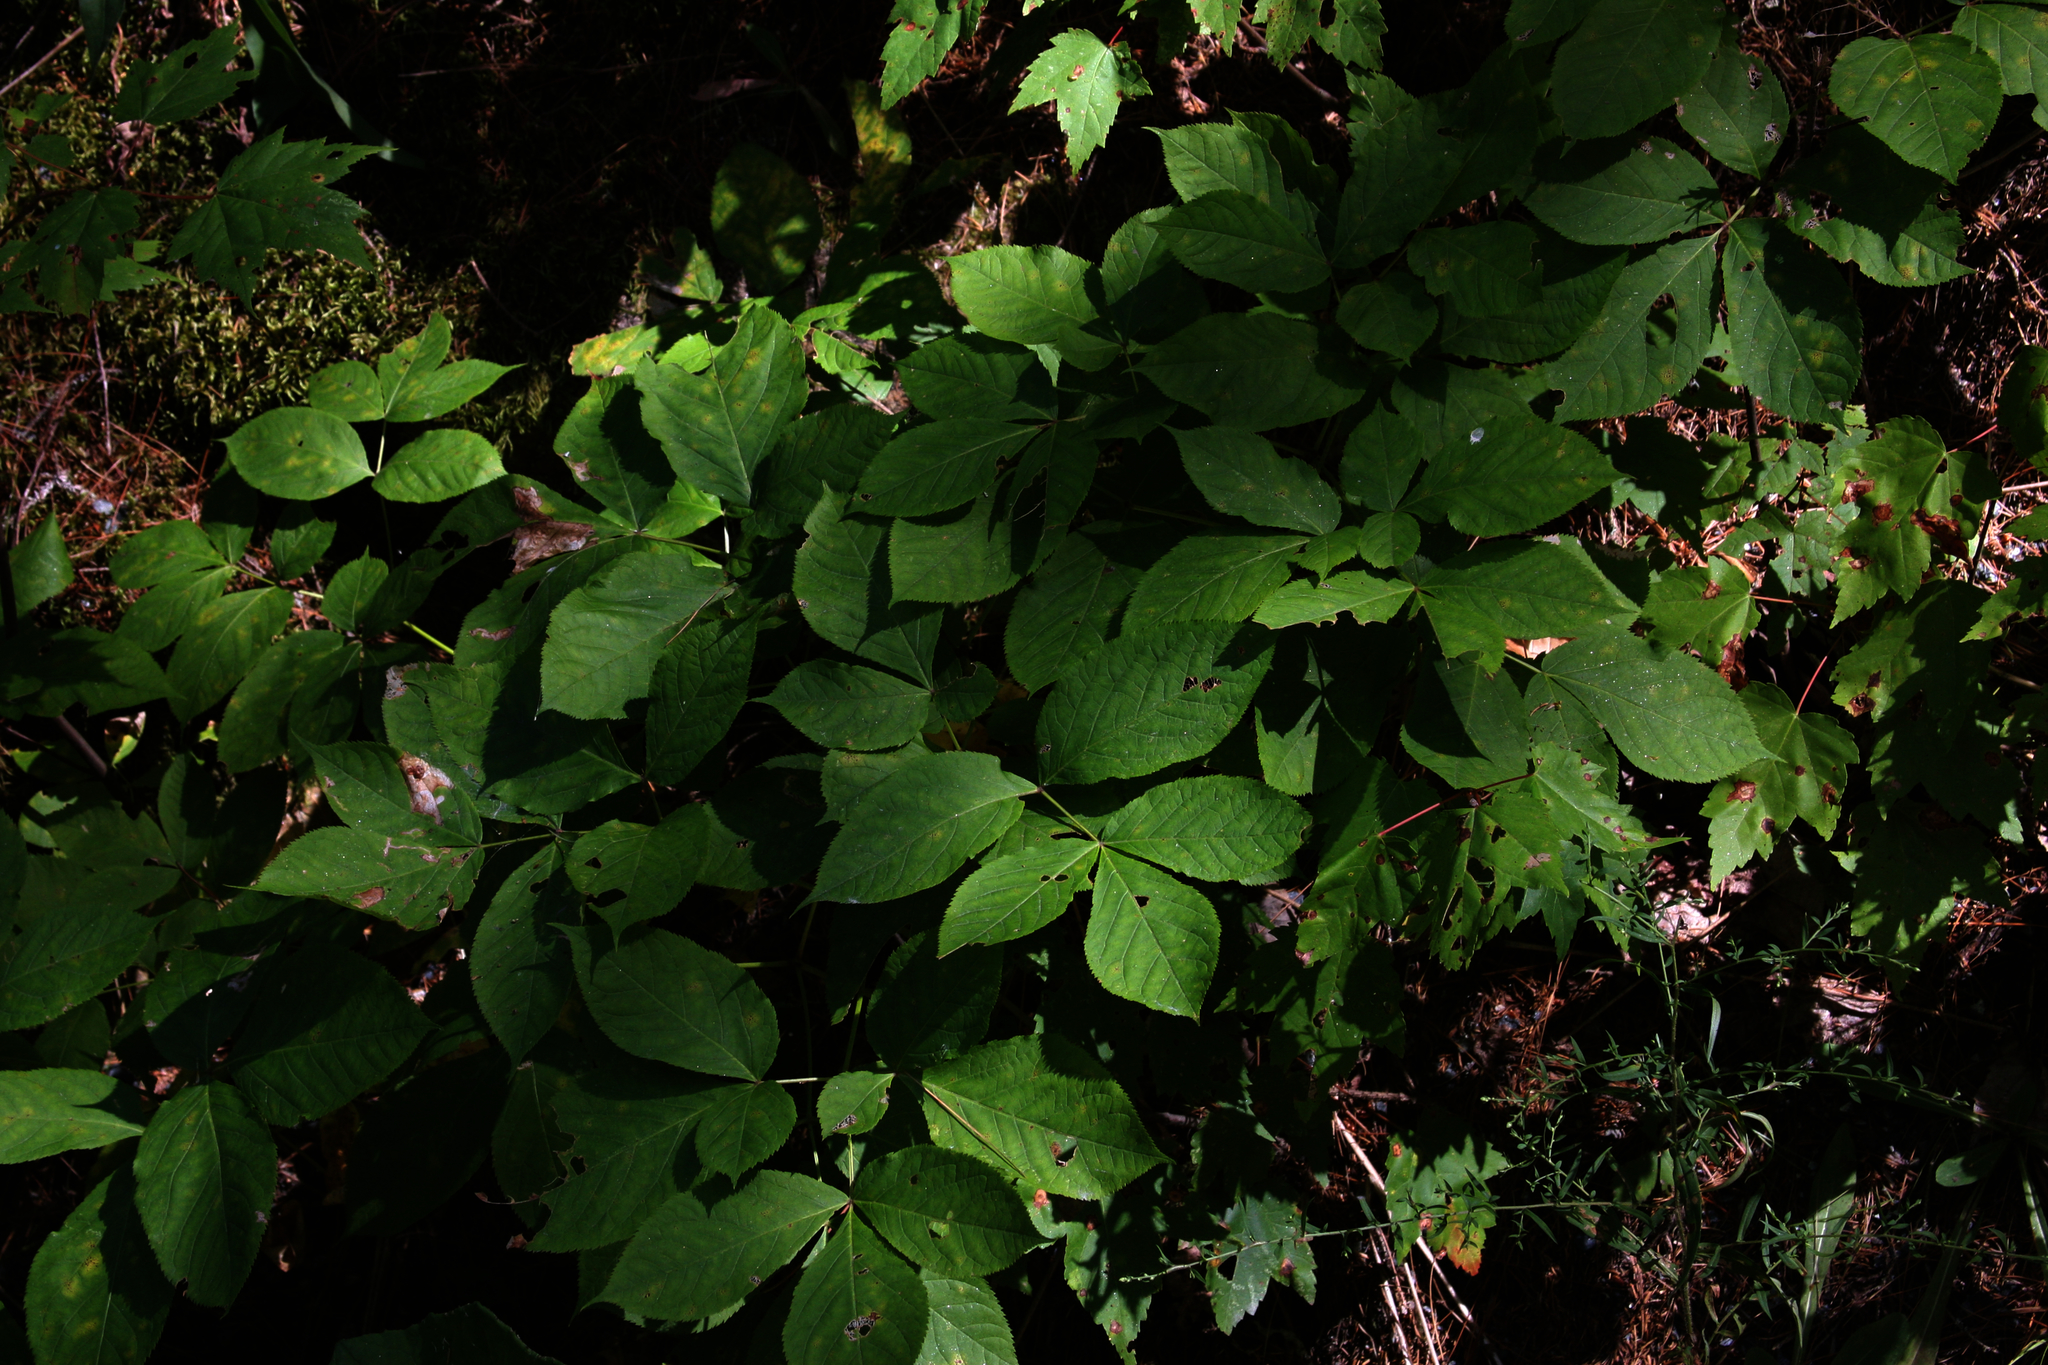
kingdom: Plantae
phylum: Tracheophyta
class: Magnoliopsida
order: Apiales
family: Araliaceae
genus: Aralia
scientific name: Aralia nudicaulis
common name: Wild sarsaparilla
